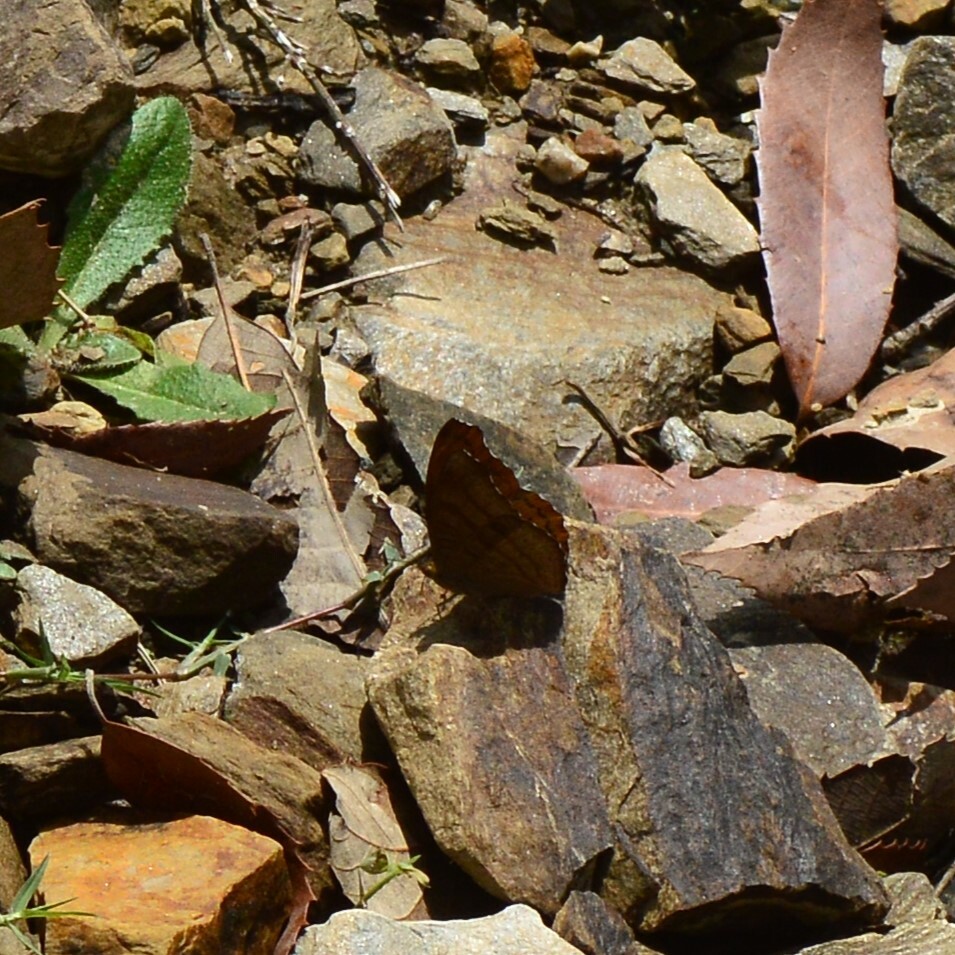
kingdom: Animalia
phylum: Arthropoda
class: Insecta
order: Lepidoptera
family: Nymphalidae
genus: Pseudergolis
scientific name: Pseudergolis wedah
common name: Tabby
